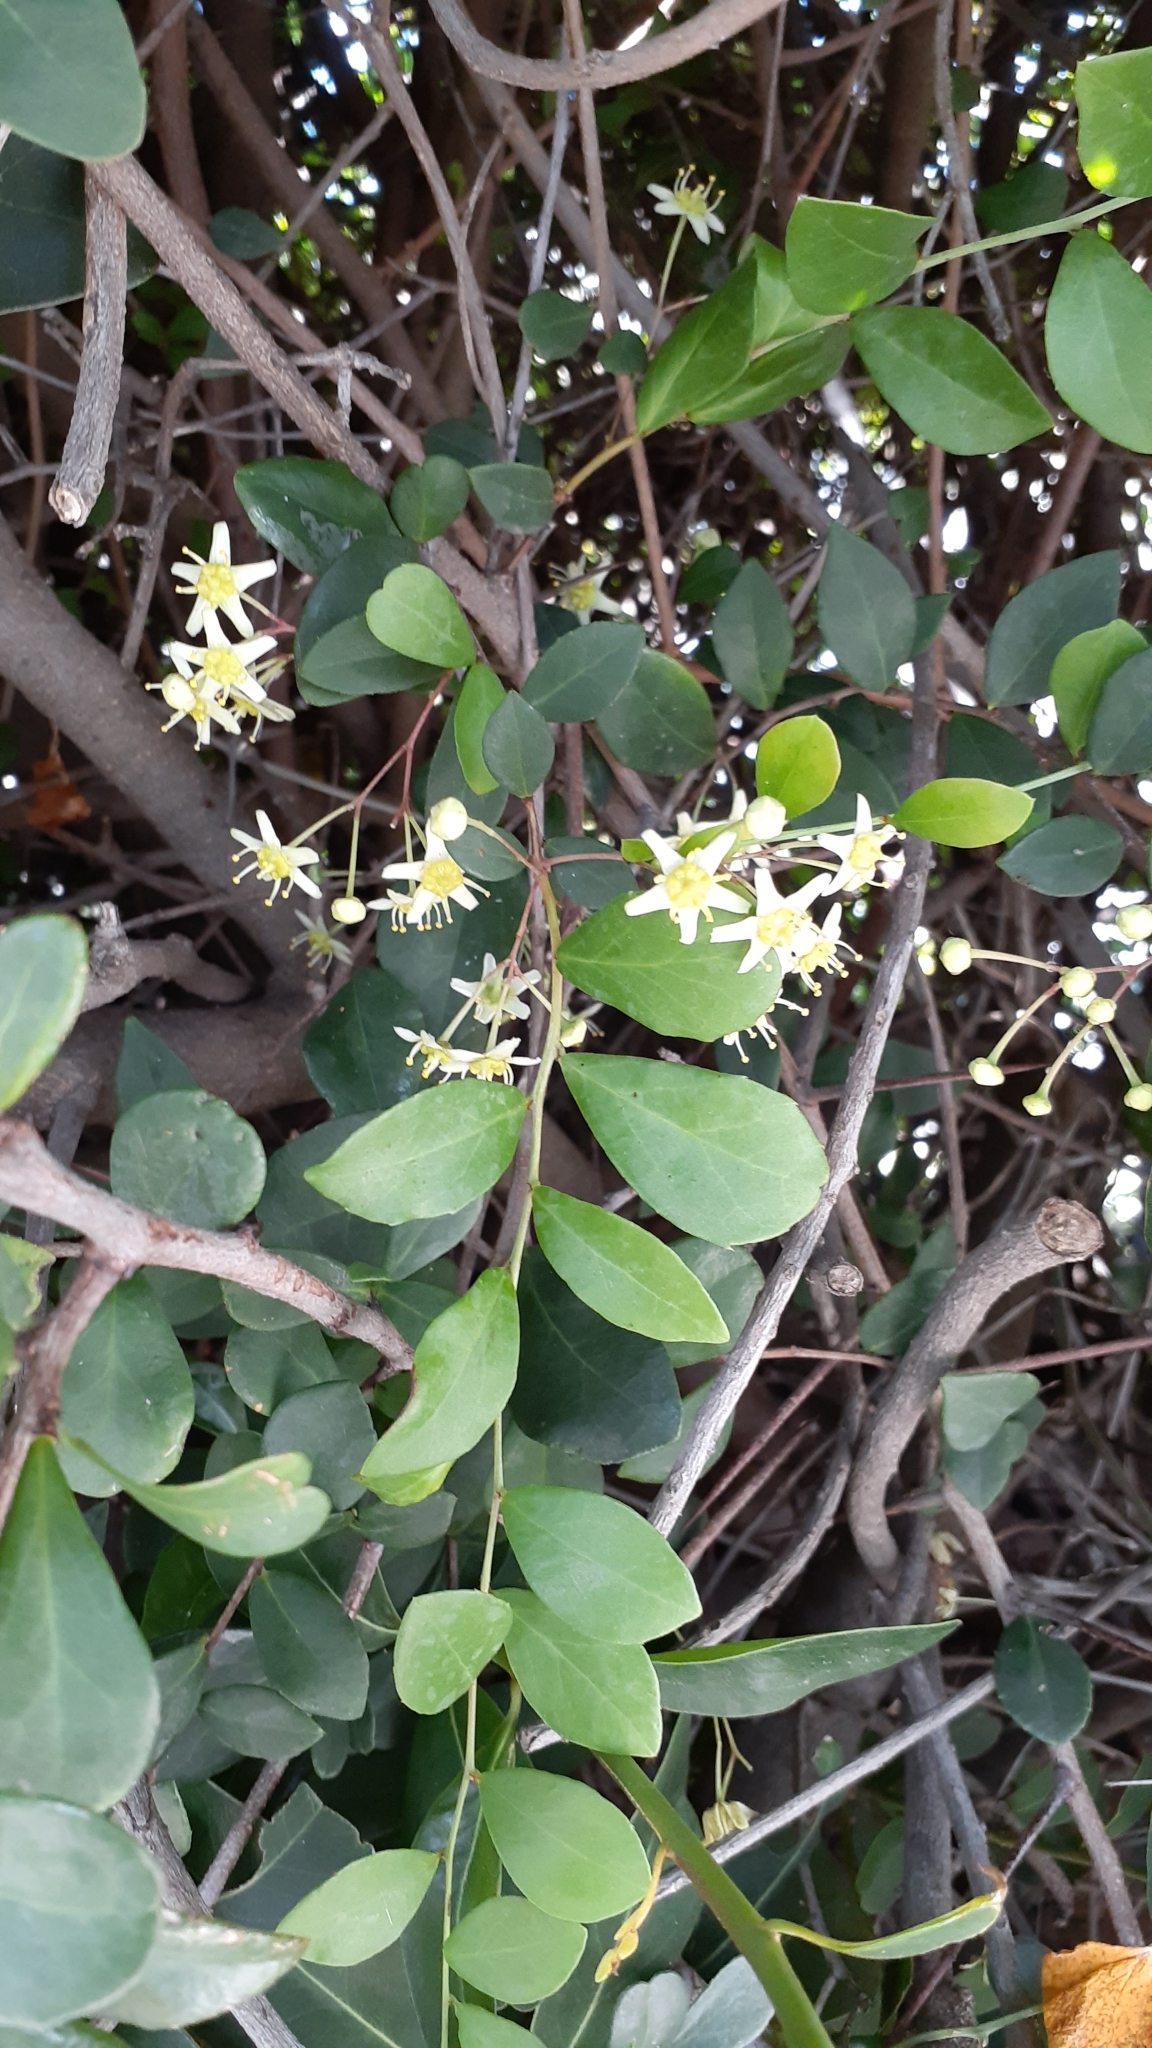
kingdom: Plantae
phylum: Tracheophyta
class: Magnoliopsida
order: Celastrales
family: Celastraceae
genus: Putterlickia
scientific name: Putterlickia pyracantha
